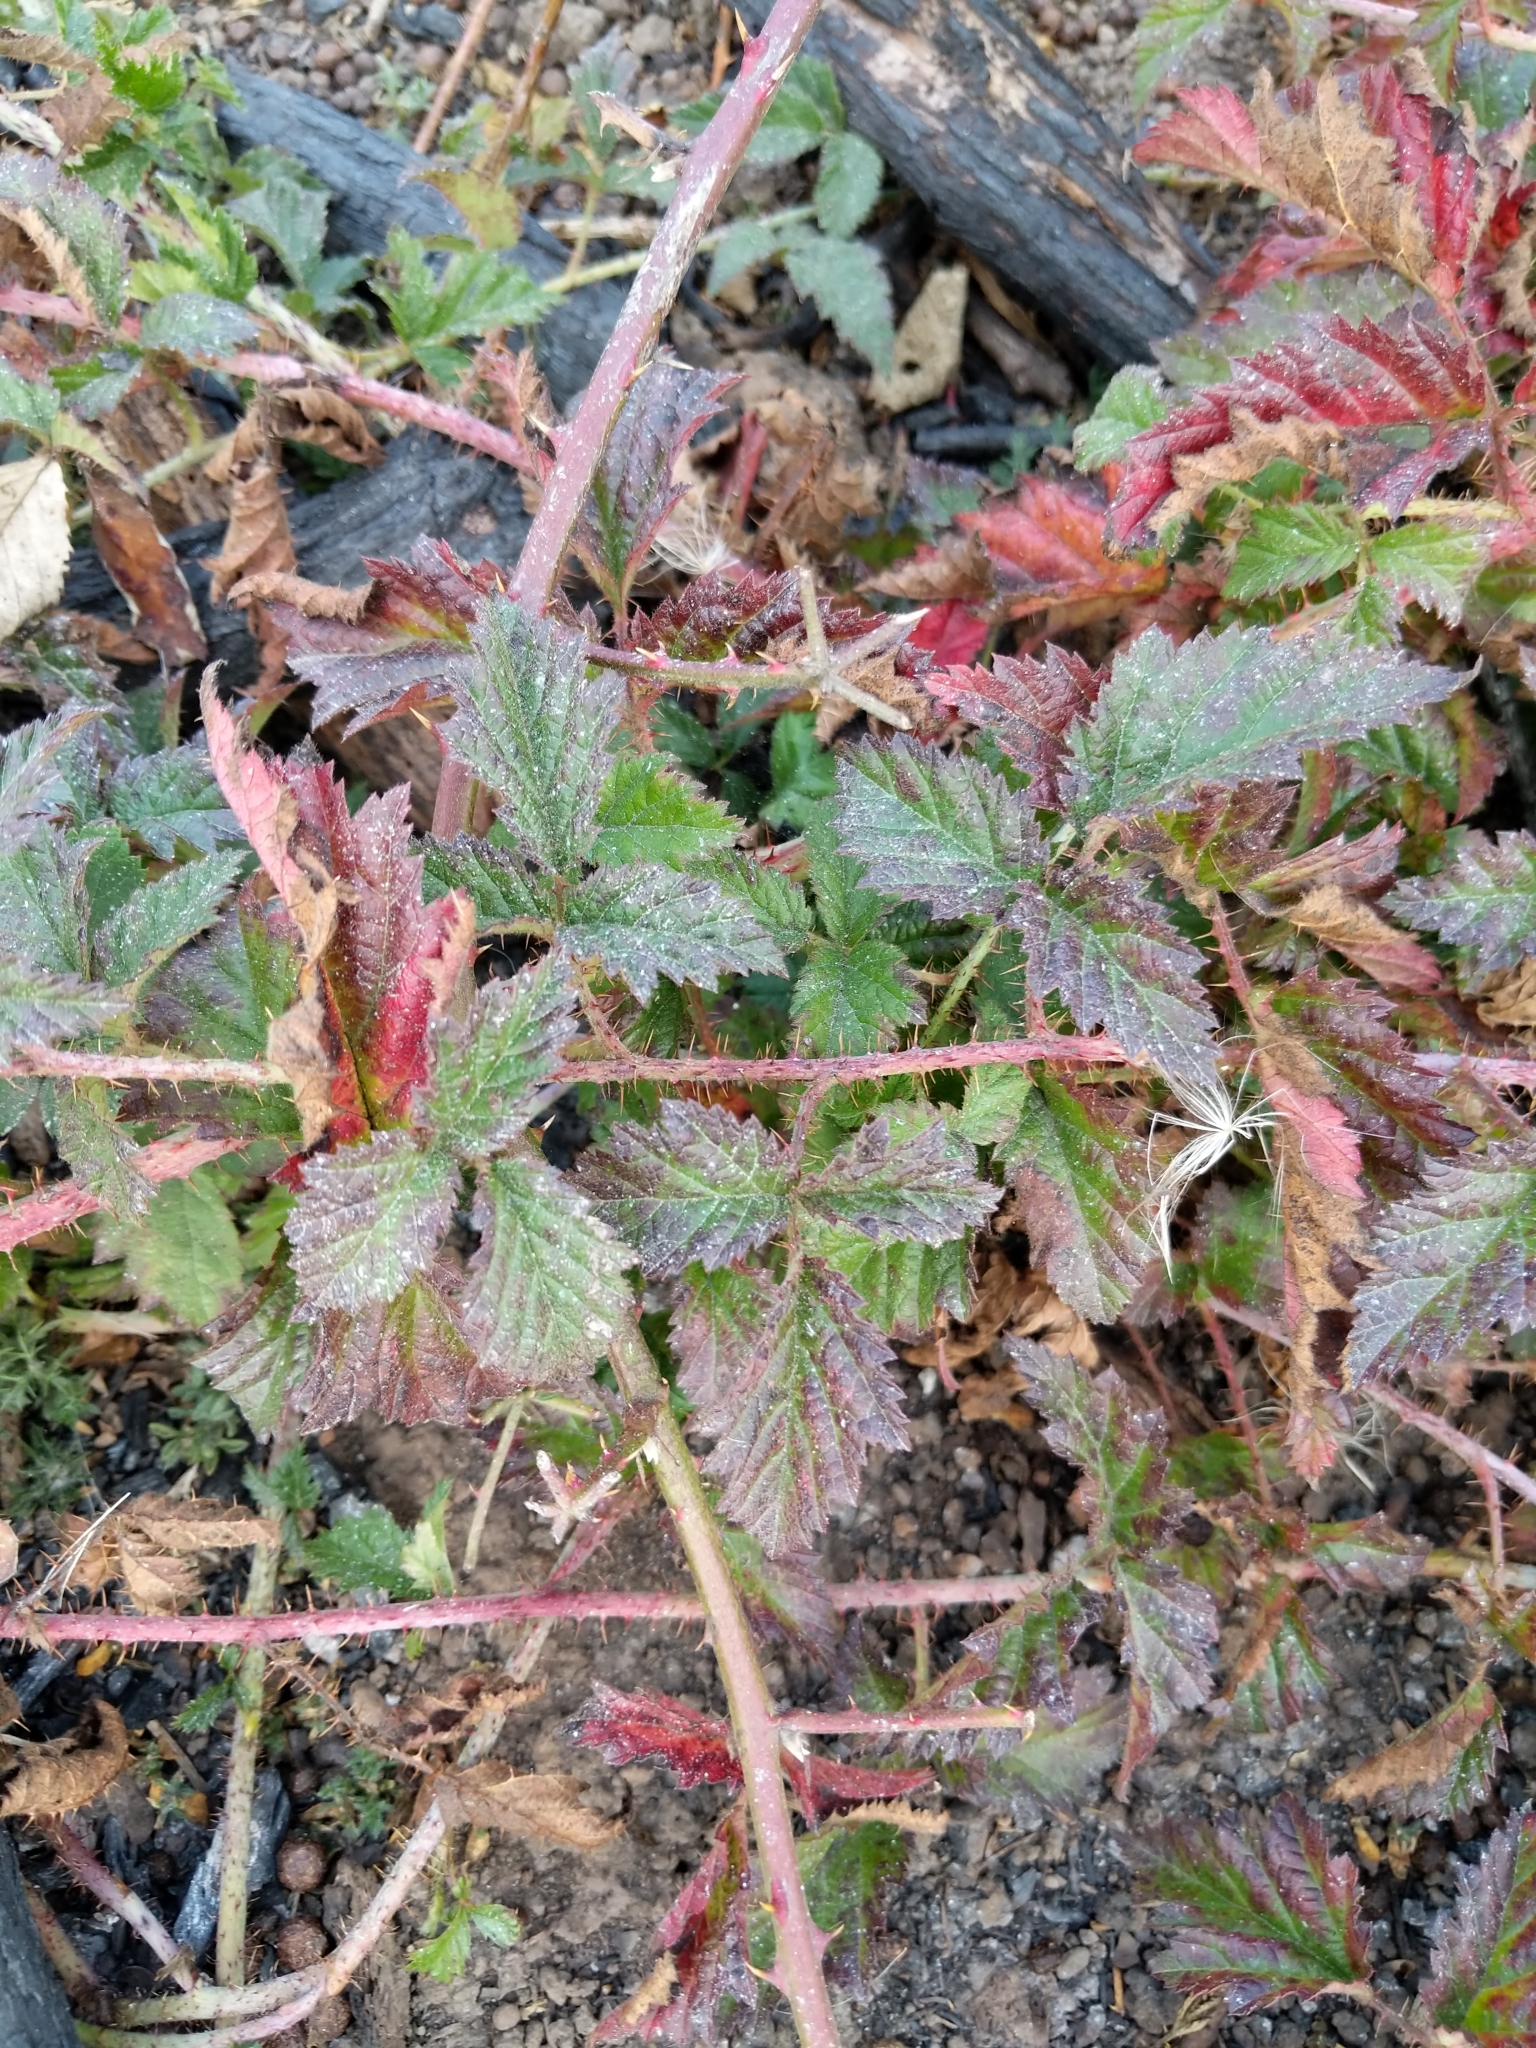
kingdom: Plantae
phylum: Tracheophyta
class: Magnoliopsida
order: Rosales
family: Rosaceae
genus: Rubus
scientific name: Rubus ursinus
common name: Pacific blackberry
